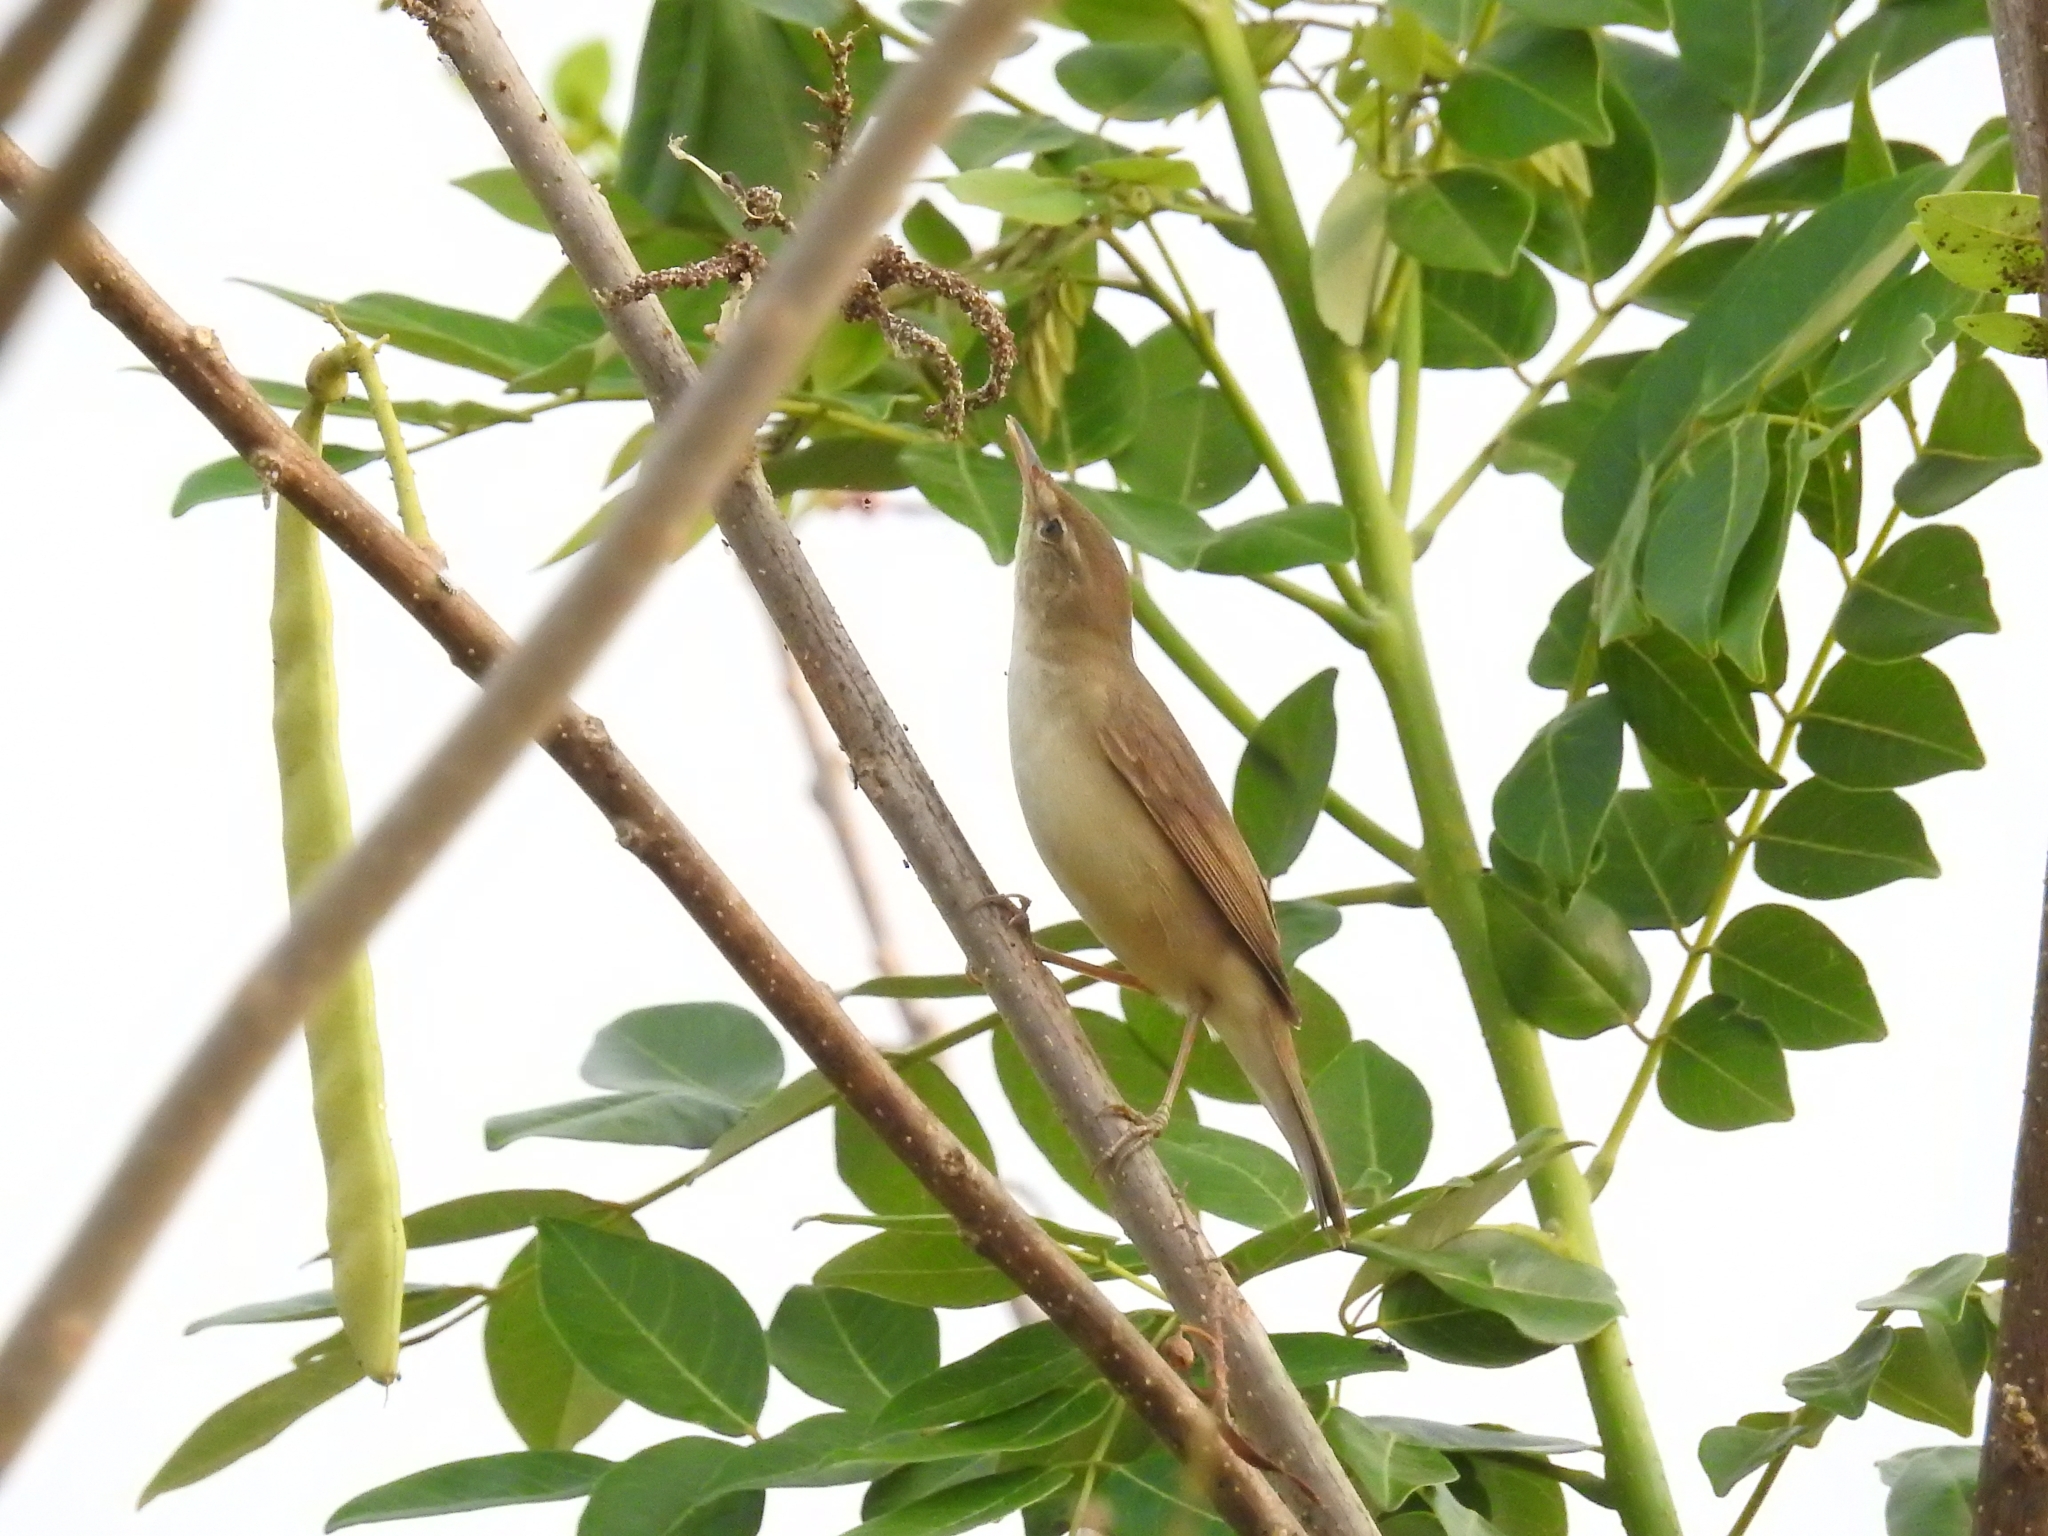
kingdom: Animalia
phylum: Chordata
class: Aves
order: Passeriformes
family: Acrocephalidae
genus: Iduna
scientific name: Iduna rama
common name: Sykes's warbler
